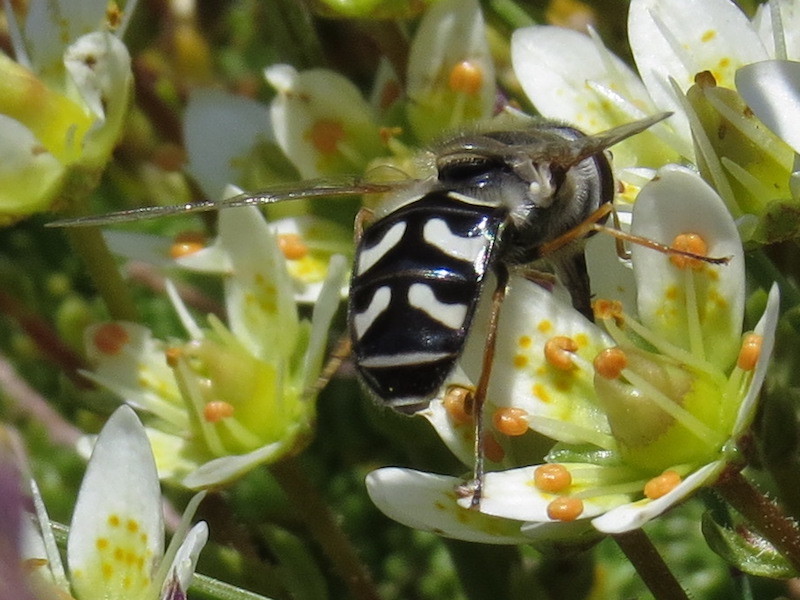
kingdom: Animalia
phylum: Arthropoda
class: Insecta
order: Diptera
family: Syrphidae
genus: Scaeva
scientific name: Scaeva pyrastri
